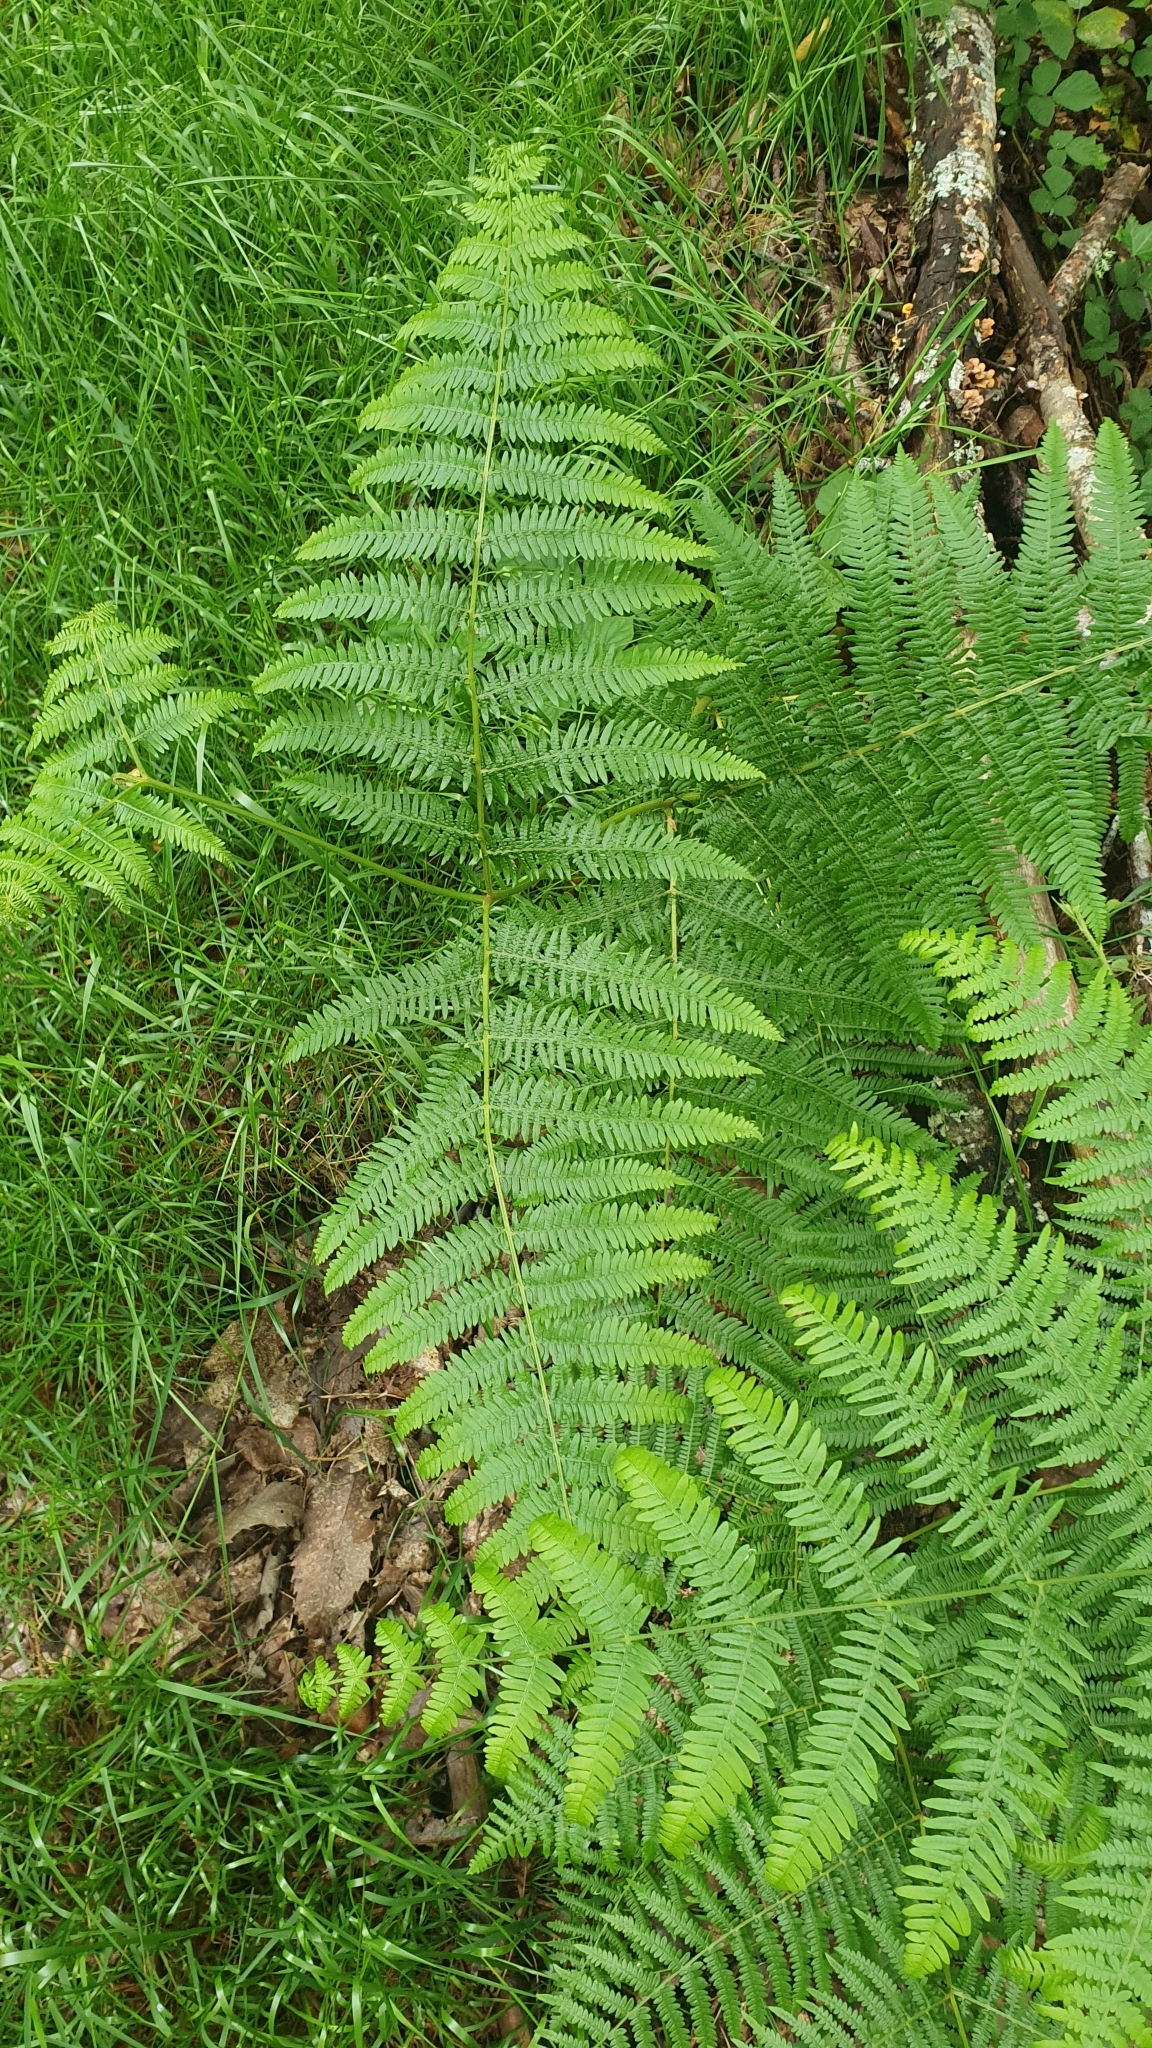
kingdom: Plantae
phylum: Tracheophyta
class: Polypodiopsida
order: Polypodiales
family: Dennstaedtiaceae
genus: Pteridium
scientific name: Pteridium aquilinum
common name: Bracken
